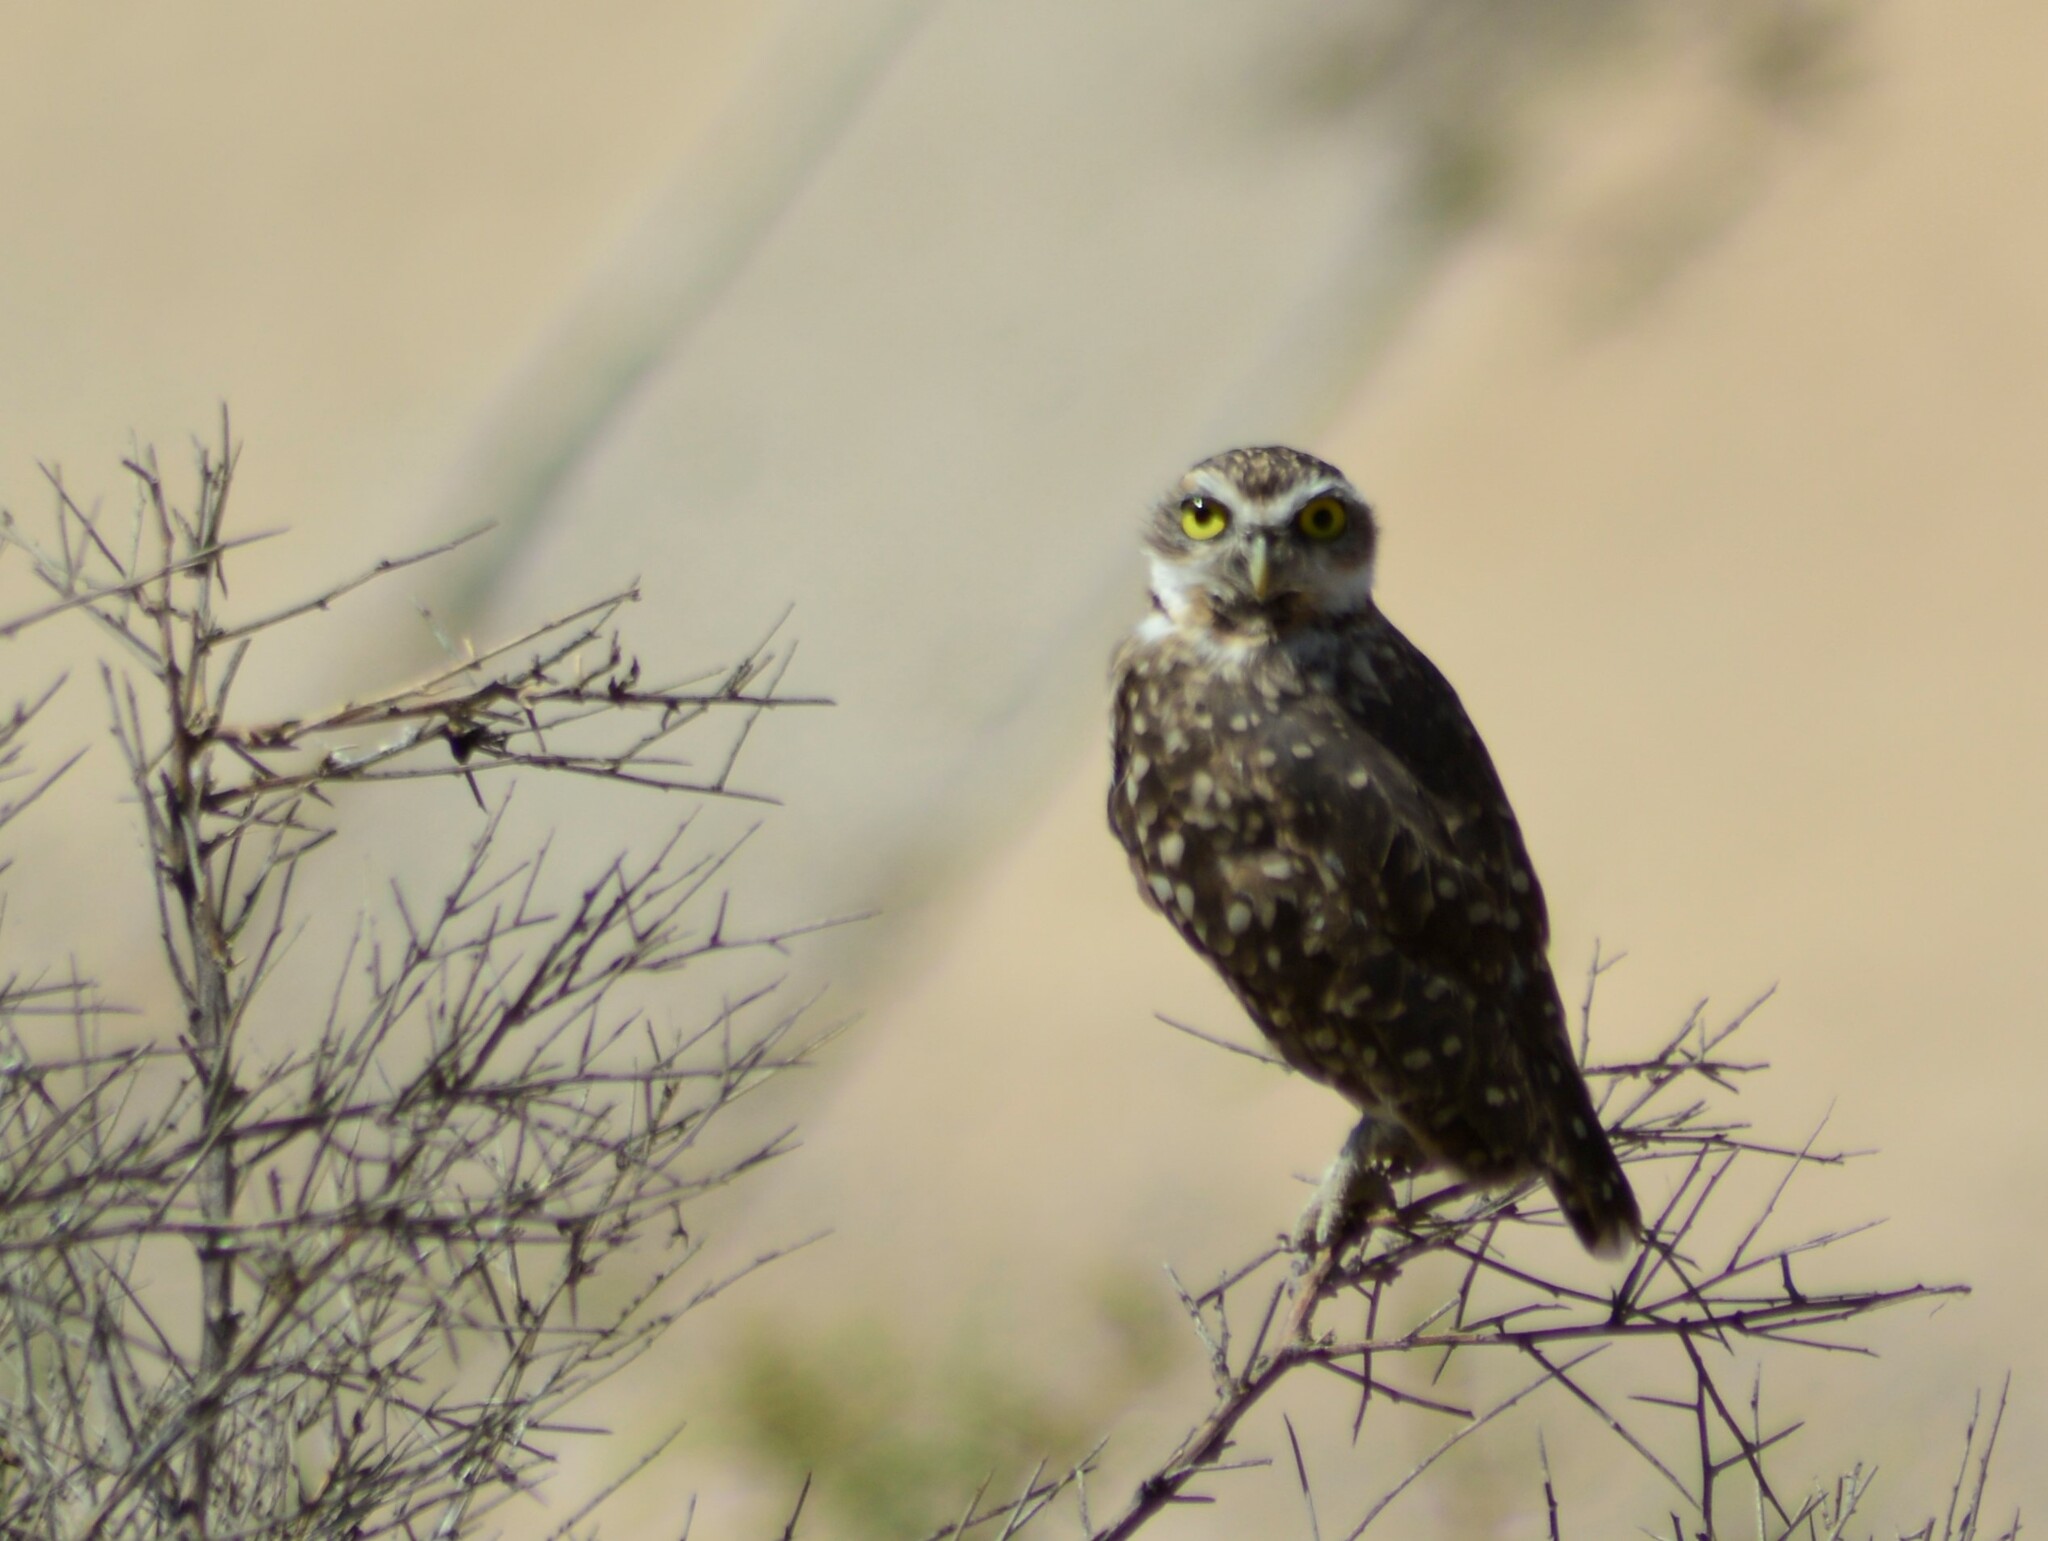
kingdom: Animalia
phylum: Chordata
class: Aves
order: Strigiformes
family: Strigidae
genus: Athene
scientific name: Athene cunicularia
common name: Burrowing owl
